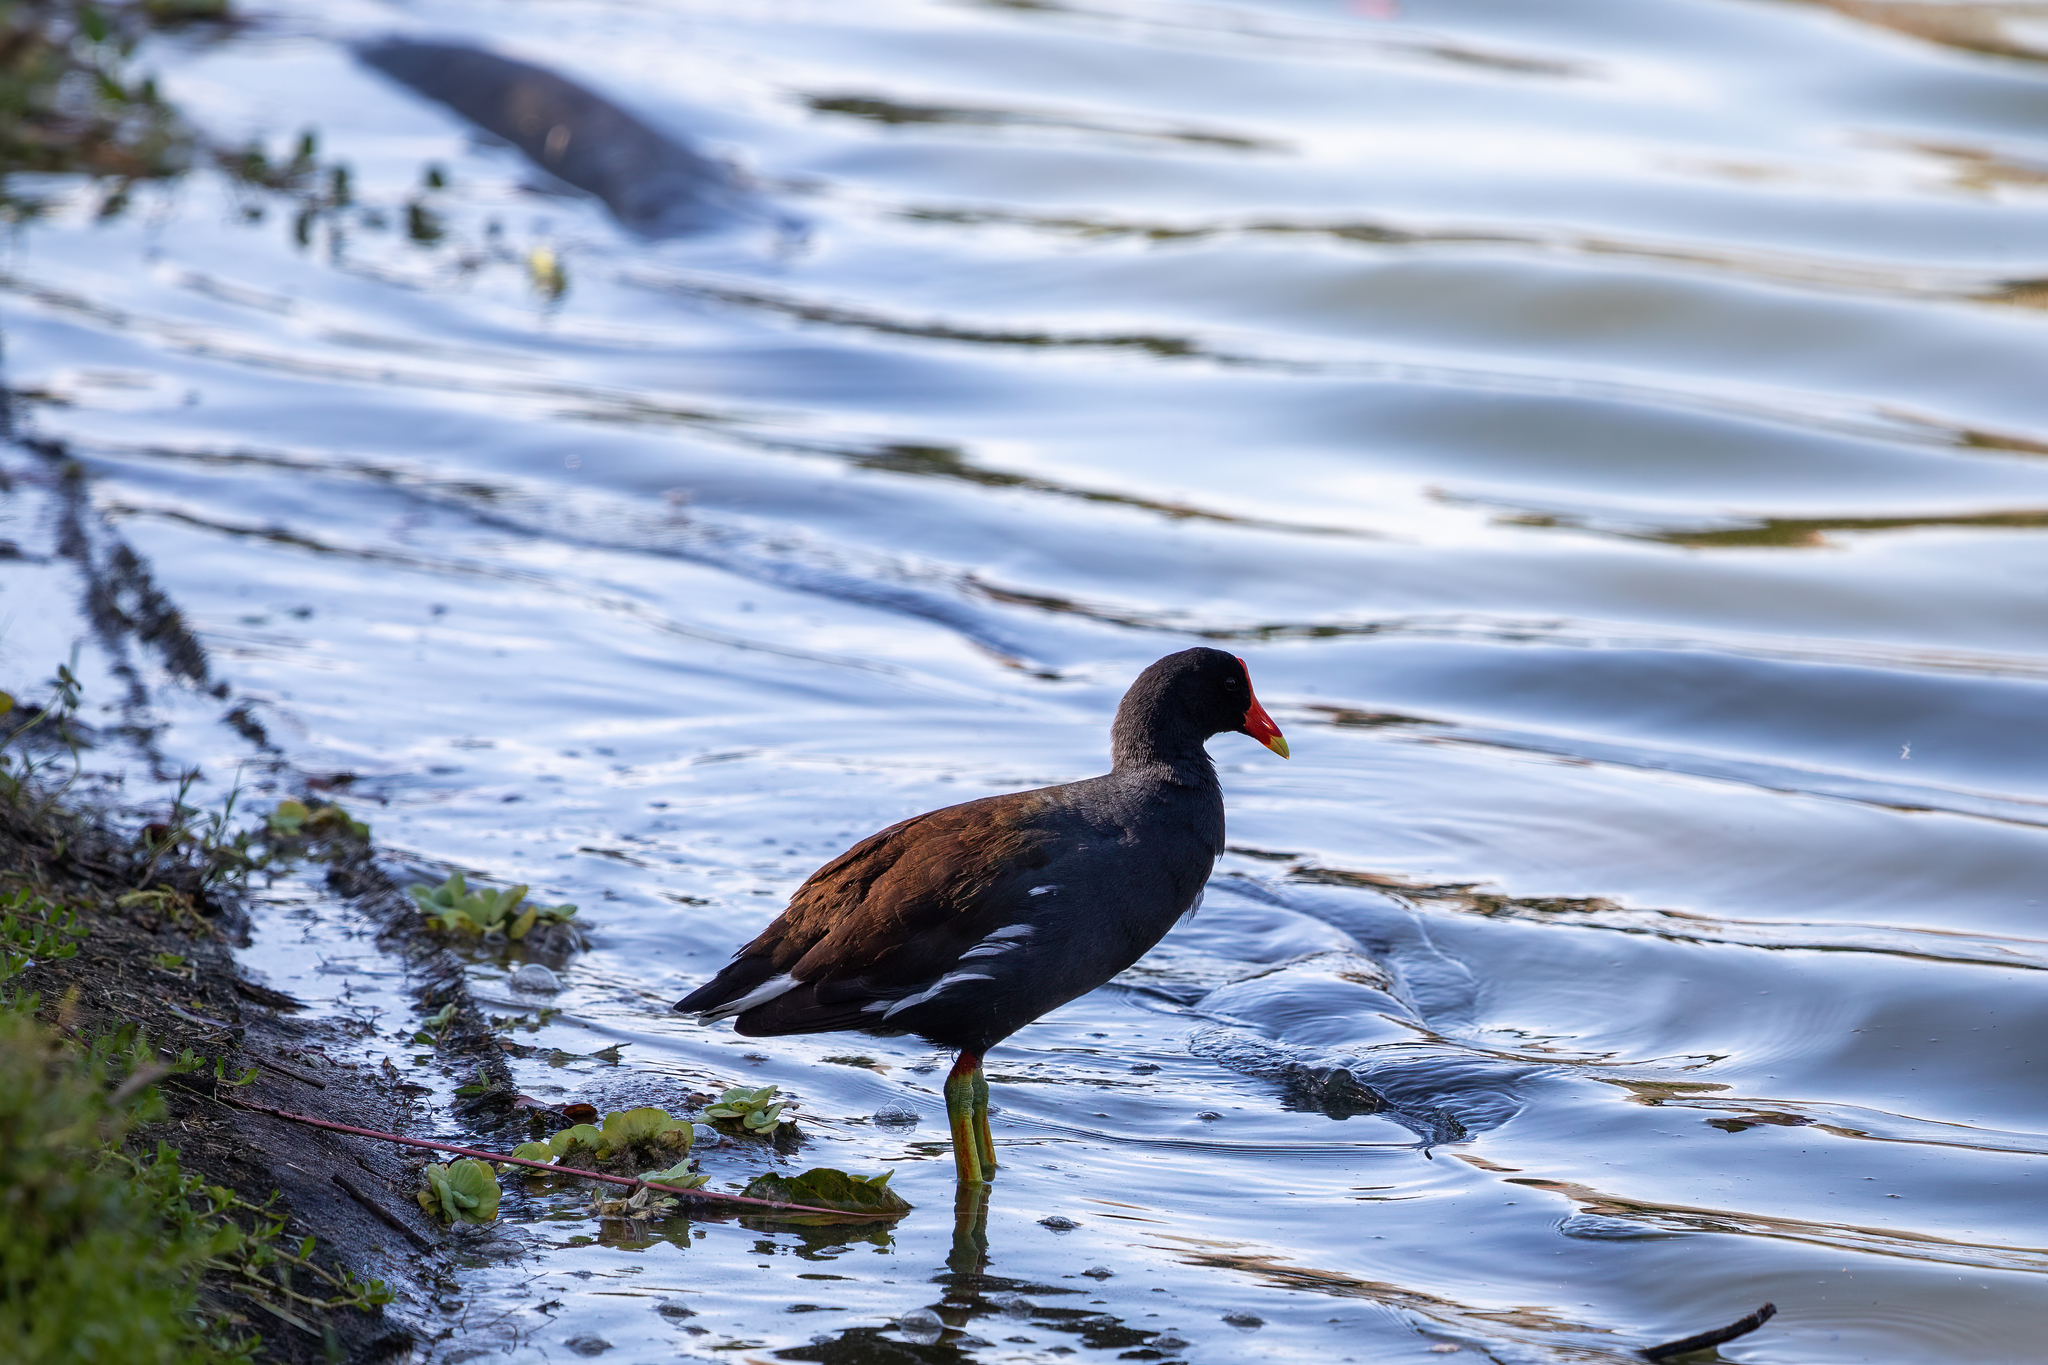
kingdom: Animalia
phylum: Chordata
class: Aves
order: Gruiformes
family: Rallidae
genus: Gallinula
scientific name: Gallinula chloropus
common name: Common moorhen
